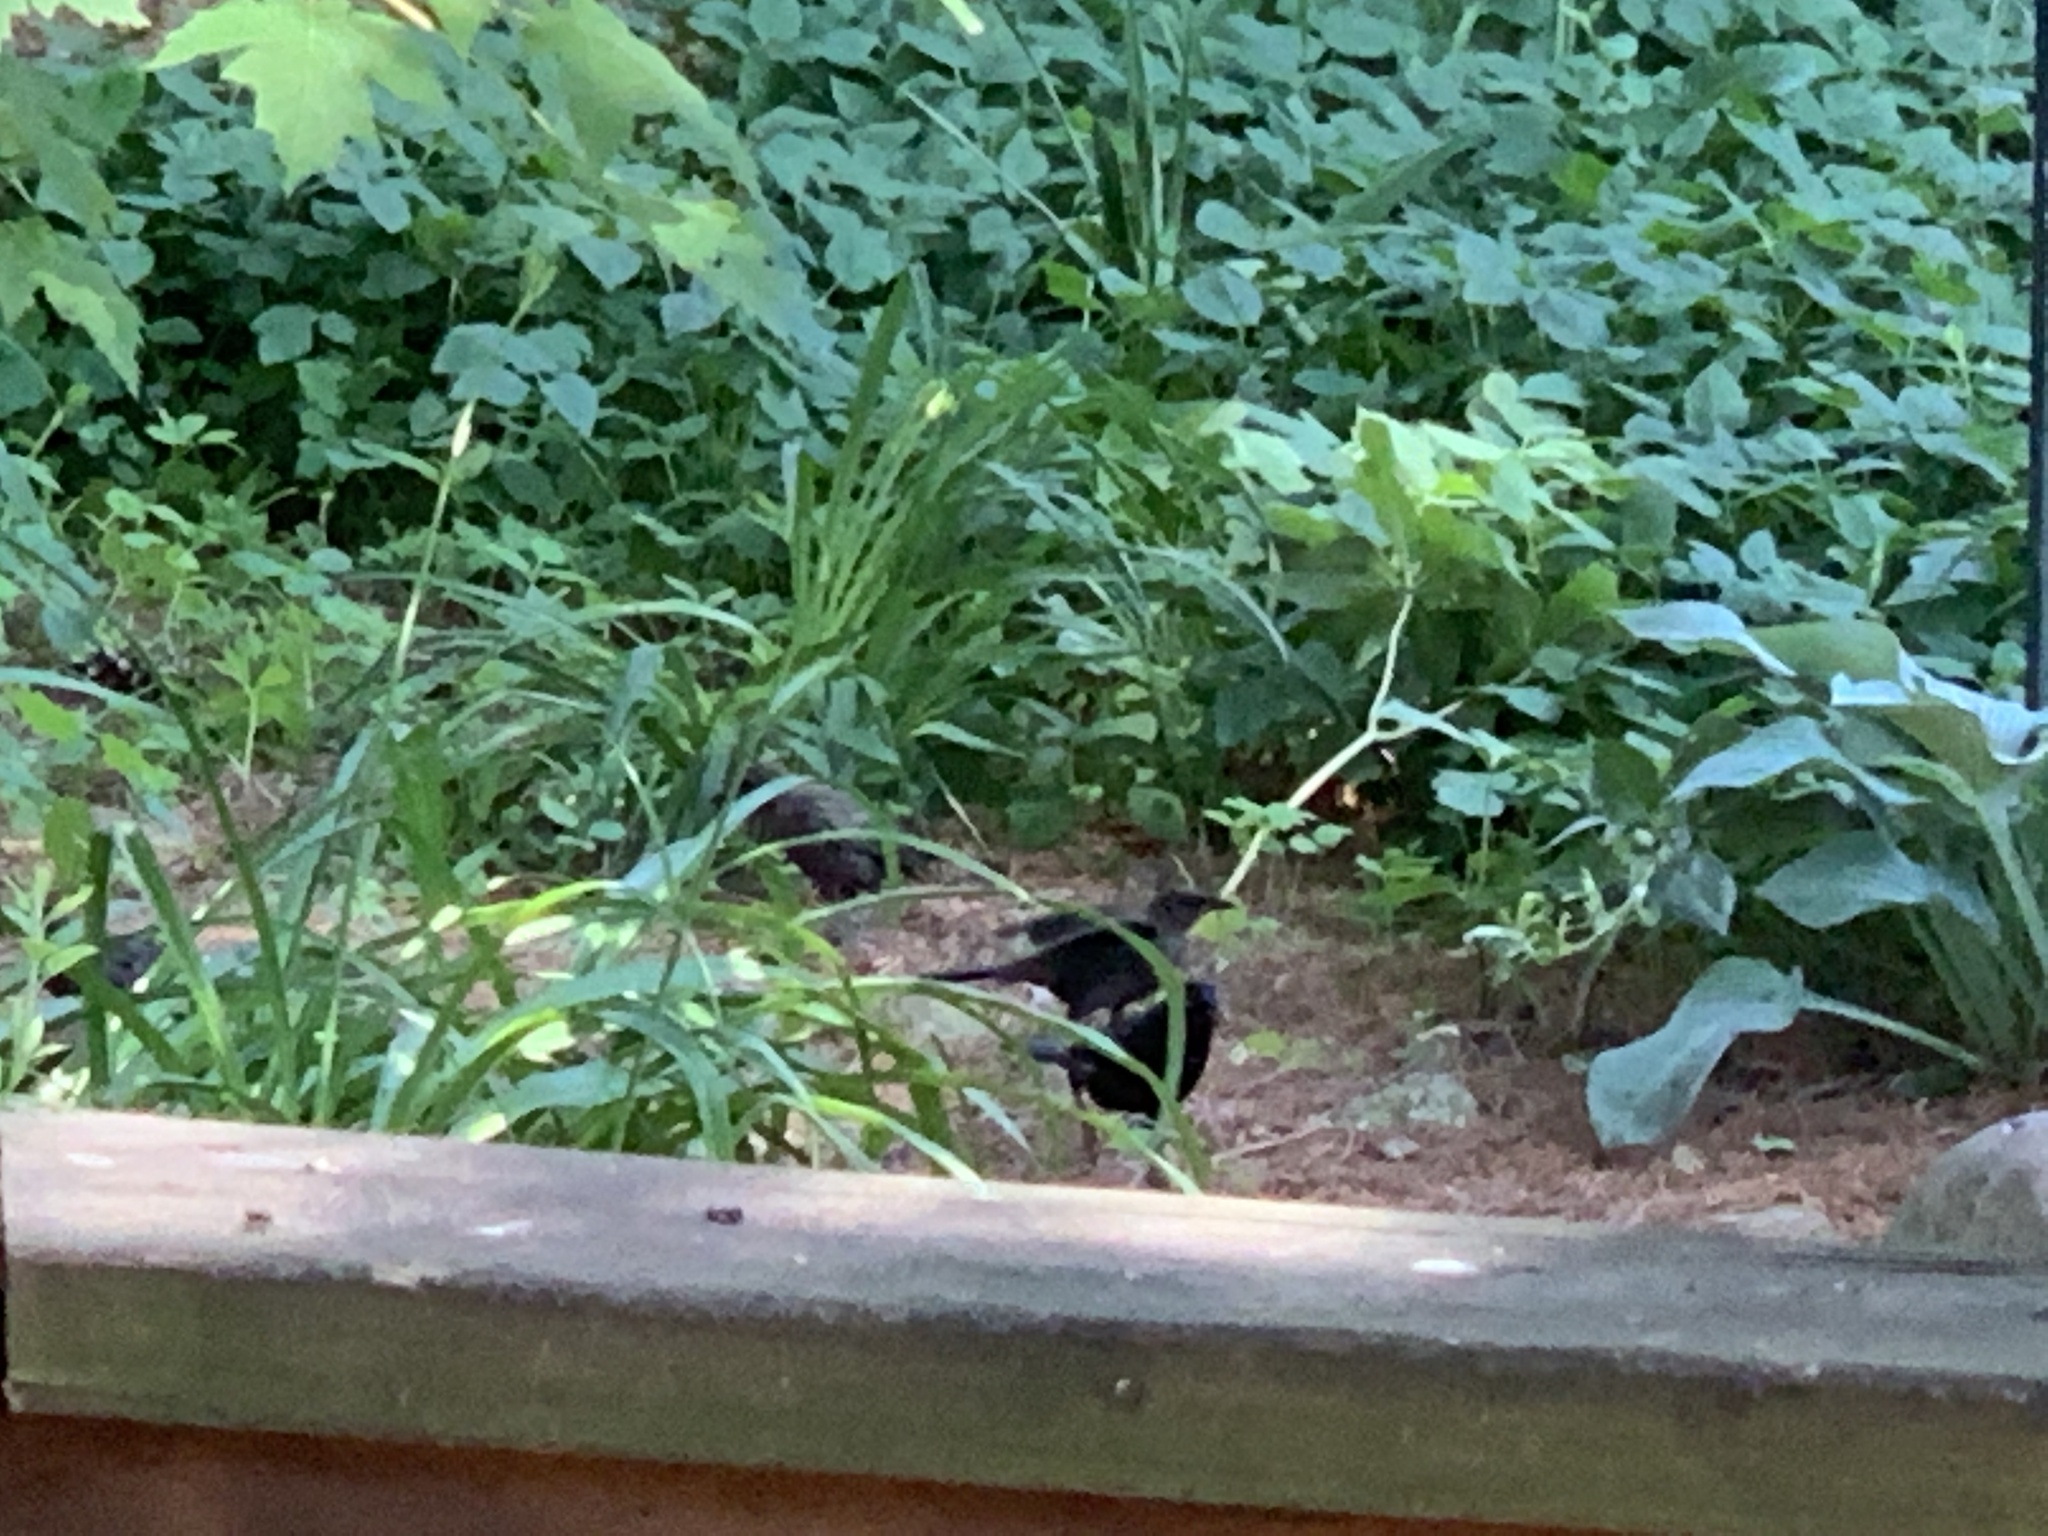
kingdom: Animalia
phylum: Chordata
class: Aves
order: Passeriformes
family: Icteridae
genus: Quiscalus
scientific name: Quiscalus quiscula
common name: Common grackle
